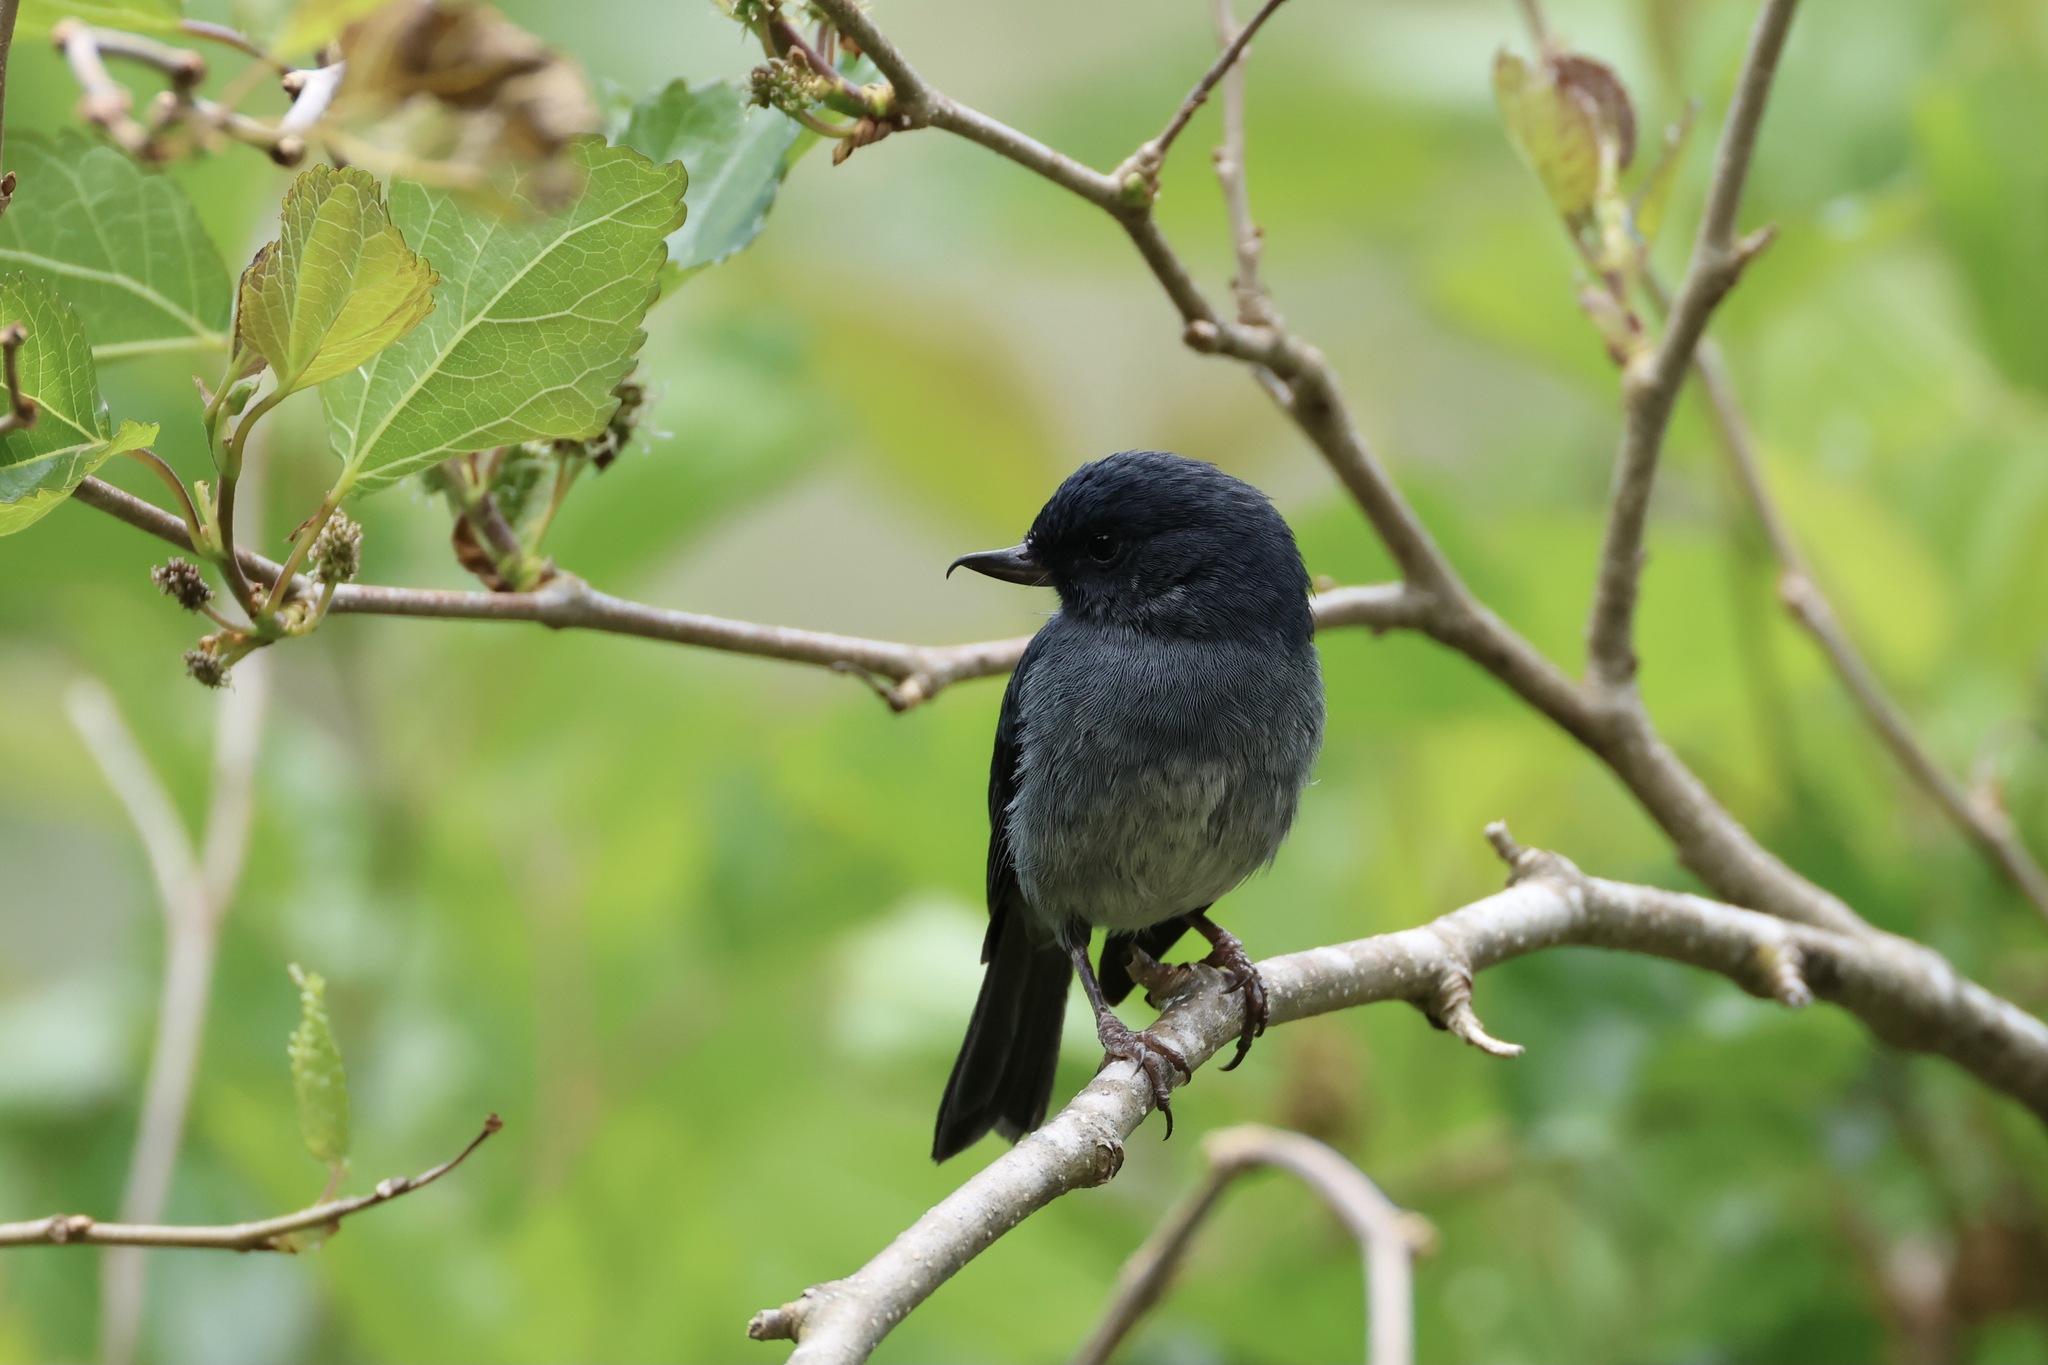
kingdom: Animalia
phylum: Chordata
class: Aves
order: Passeriformes
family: Thraupidae
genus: Diglossa
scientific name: Diglossa plumbea
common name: Slaty flowerpiercer
